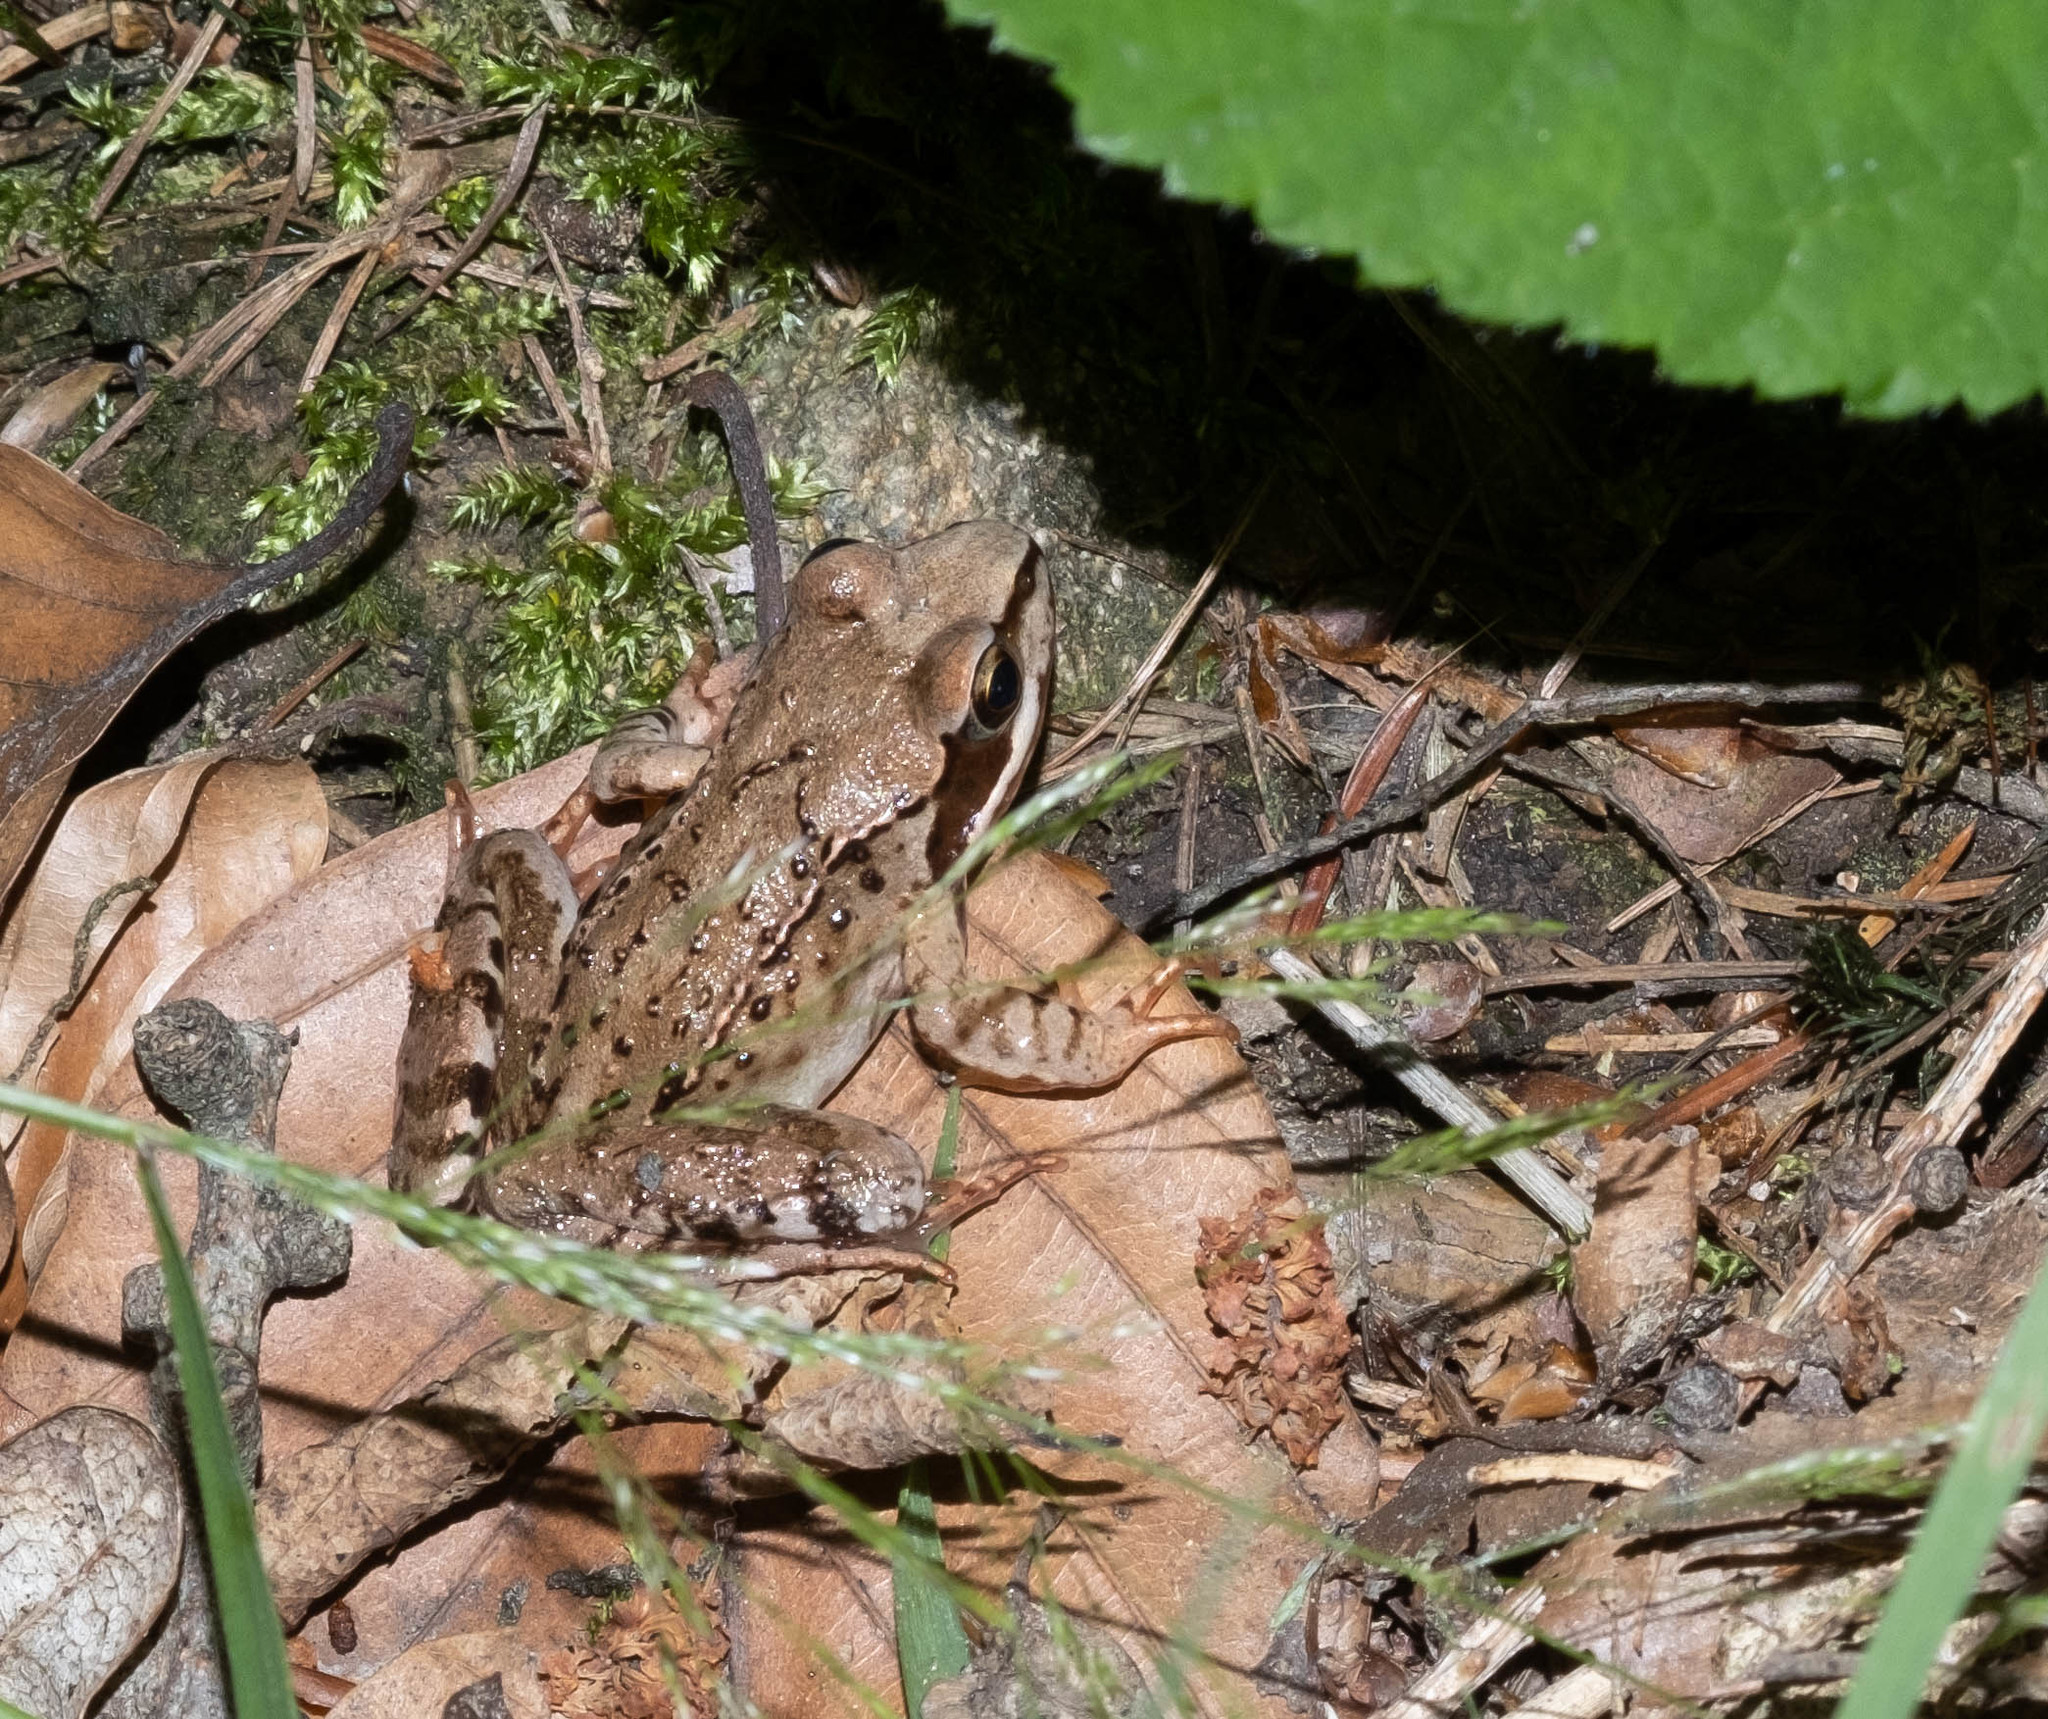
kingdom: Animalia
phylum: Chordata
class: Amphibia
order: Anura
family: Ranidae
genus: Rana
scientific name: Rana temporaria
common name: Common frog
